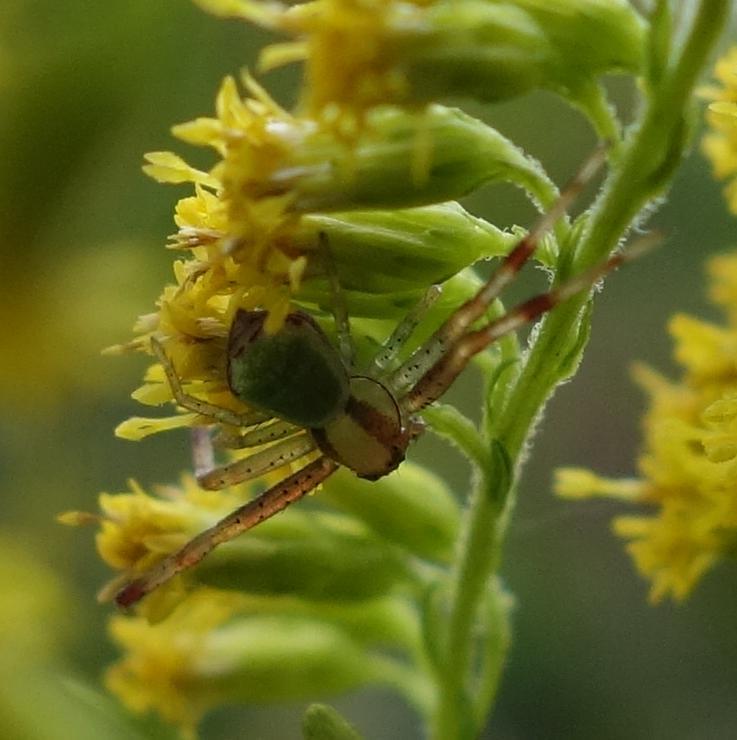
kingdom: Animalia
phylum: Arthropoda
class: Arachnida
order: Araneae
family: Thomisidae
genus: Ebrechtella
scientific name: Ebrechtella tricuspidata
